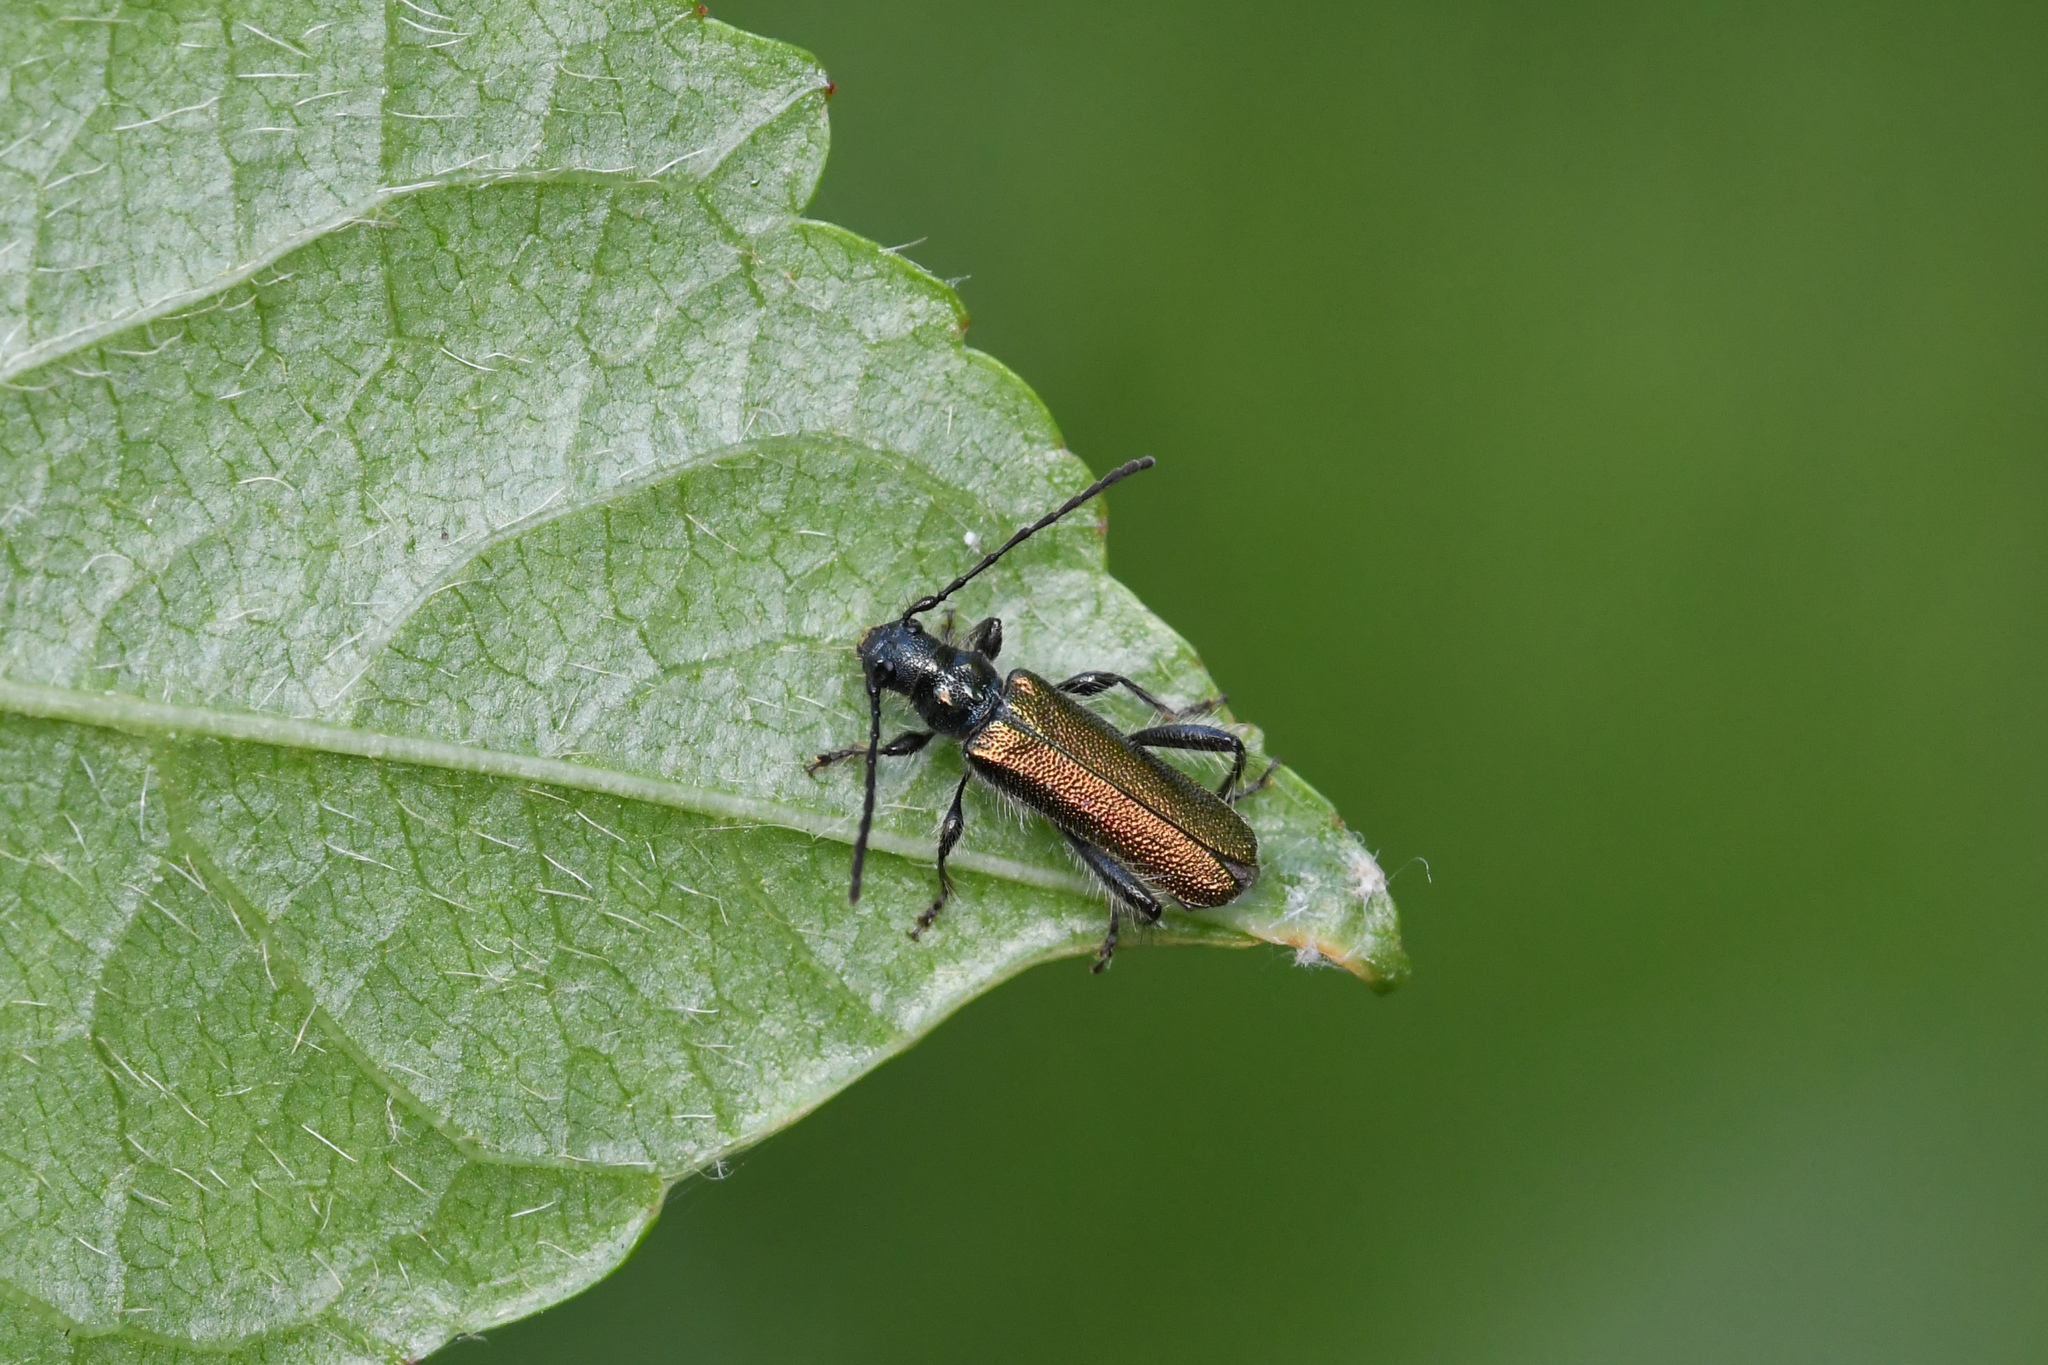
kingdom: Animalia
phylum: Arthropoda
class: Insecta
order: Coleoptera
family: Cerambycidae
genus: Callimus
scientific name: Callimus angulatus
